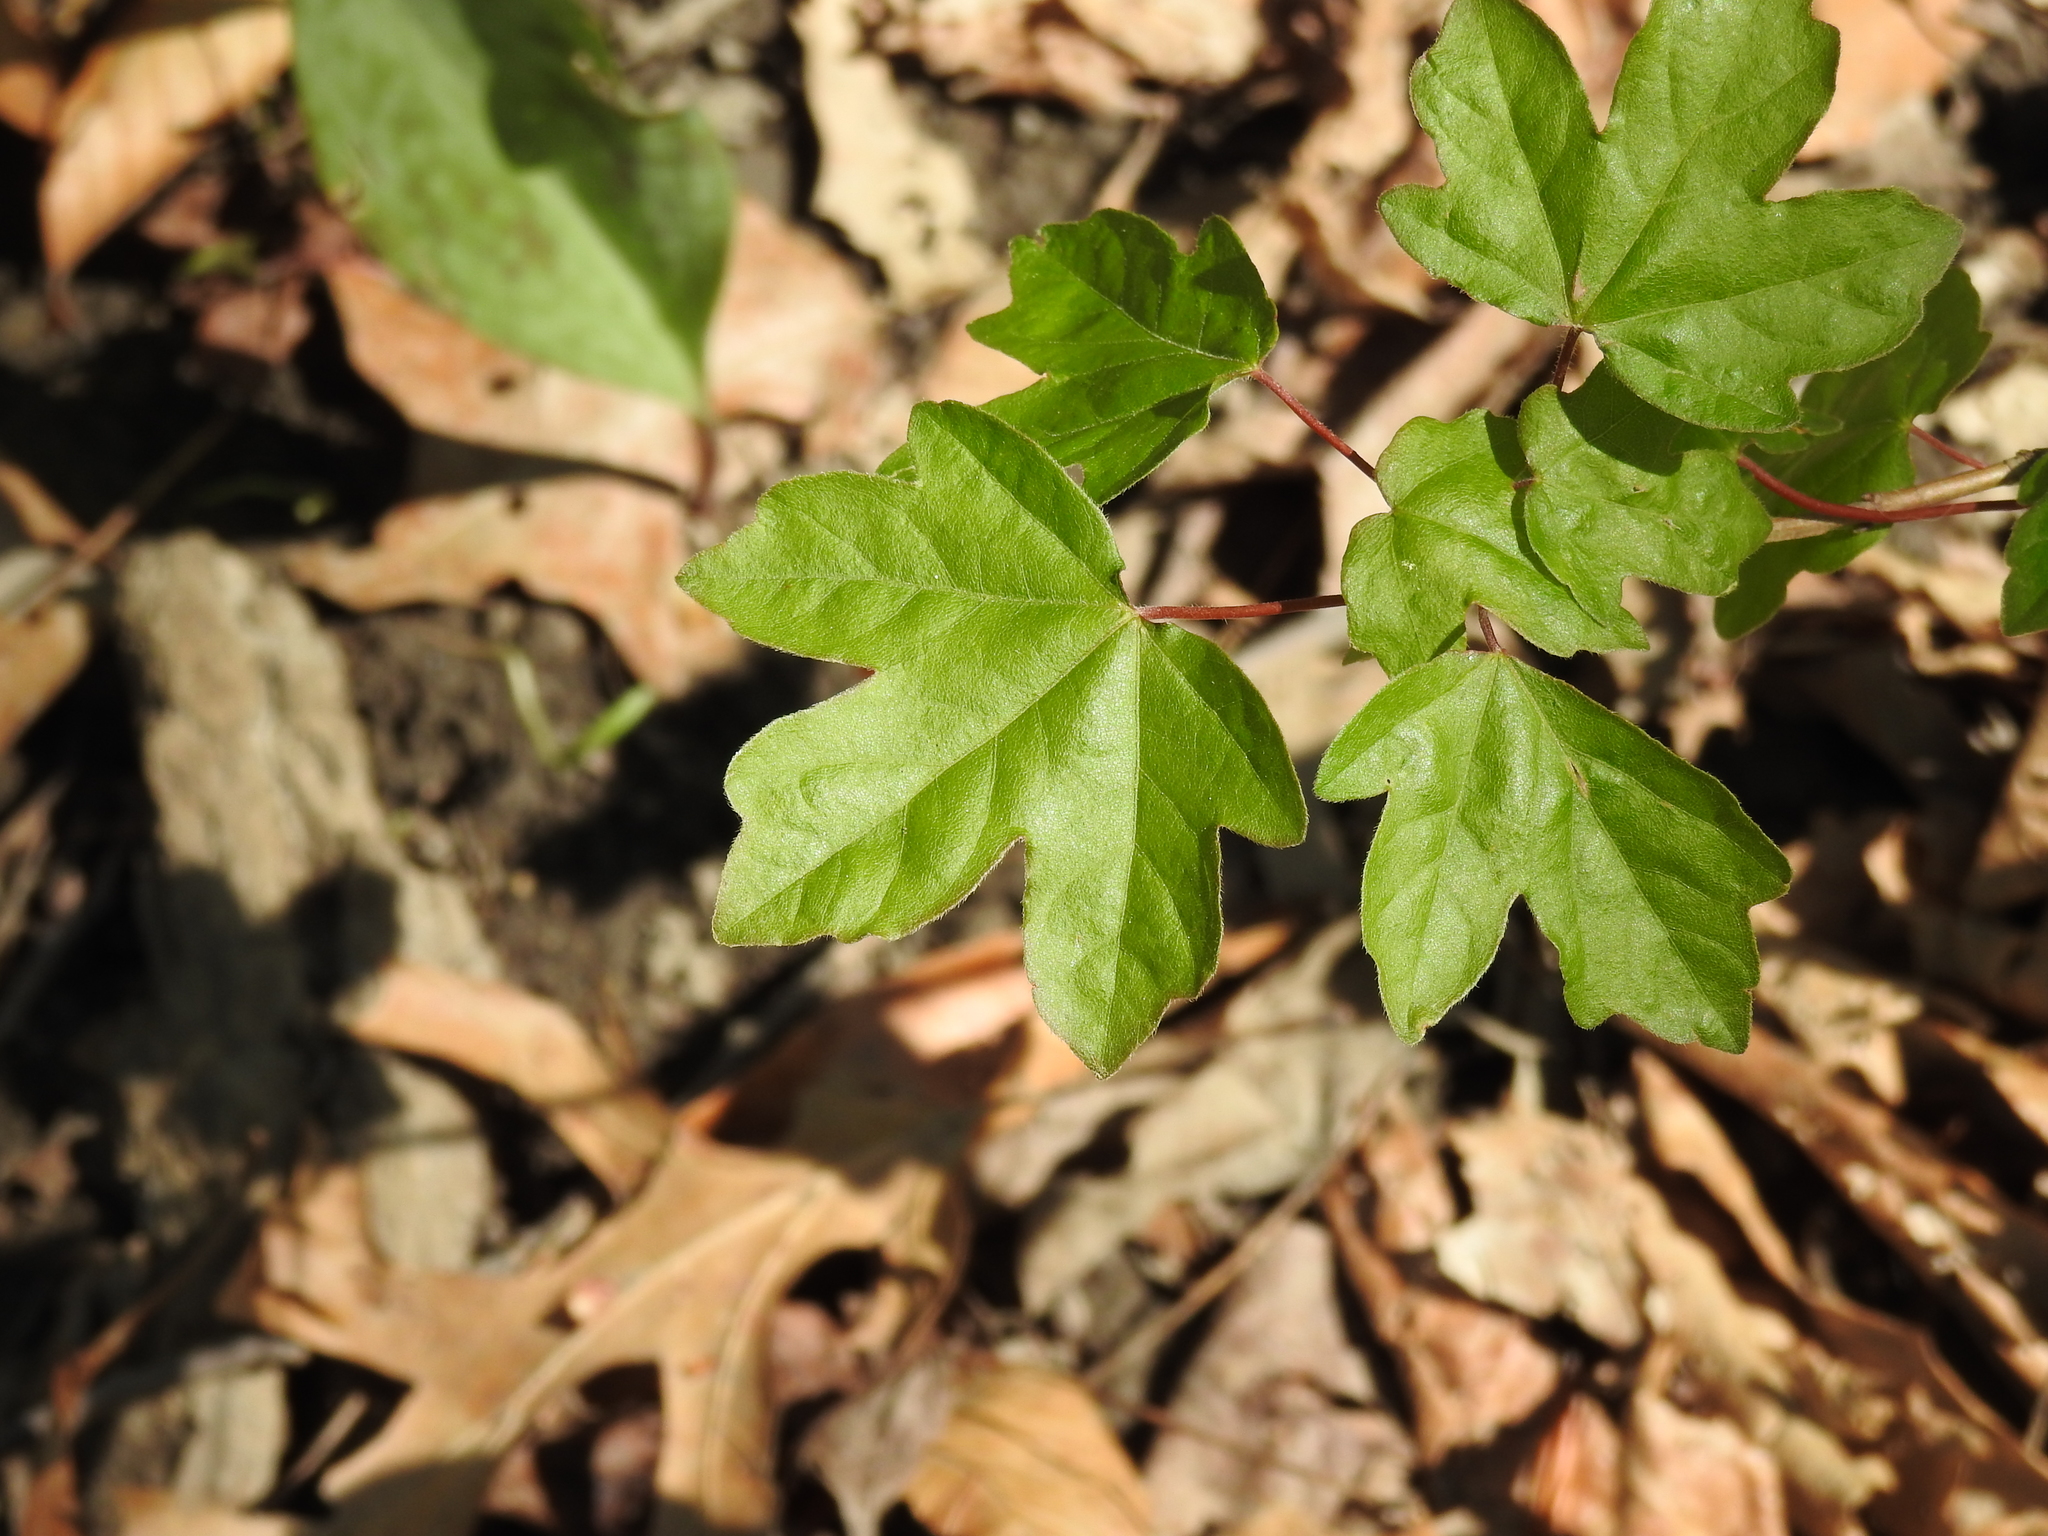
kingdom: Plantae
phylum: Tracheophyta
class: Magnoliopsida
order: Sapindales
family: Sapindaceae
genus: Acer
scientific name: Acer campestre
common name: Field maple
